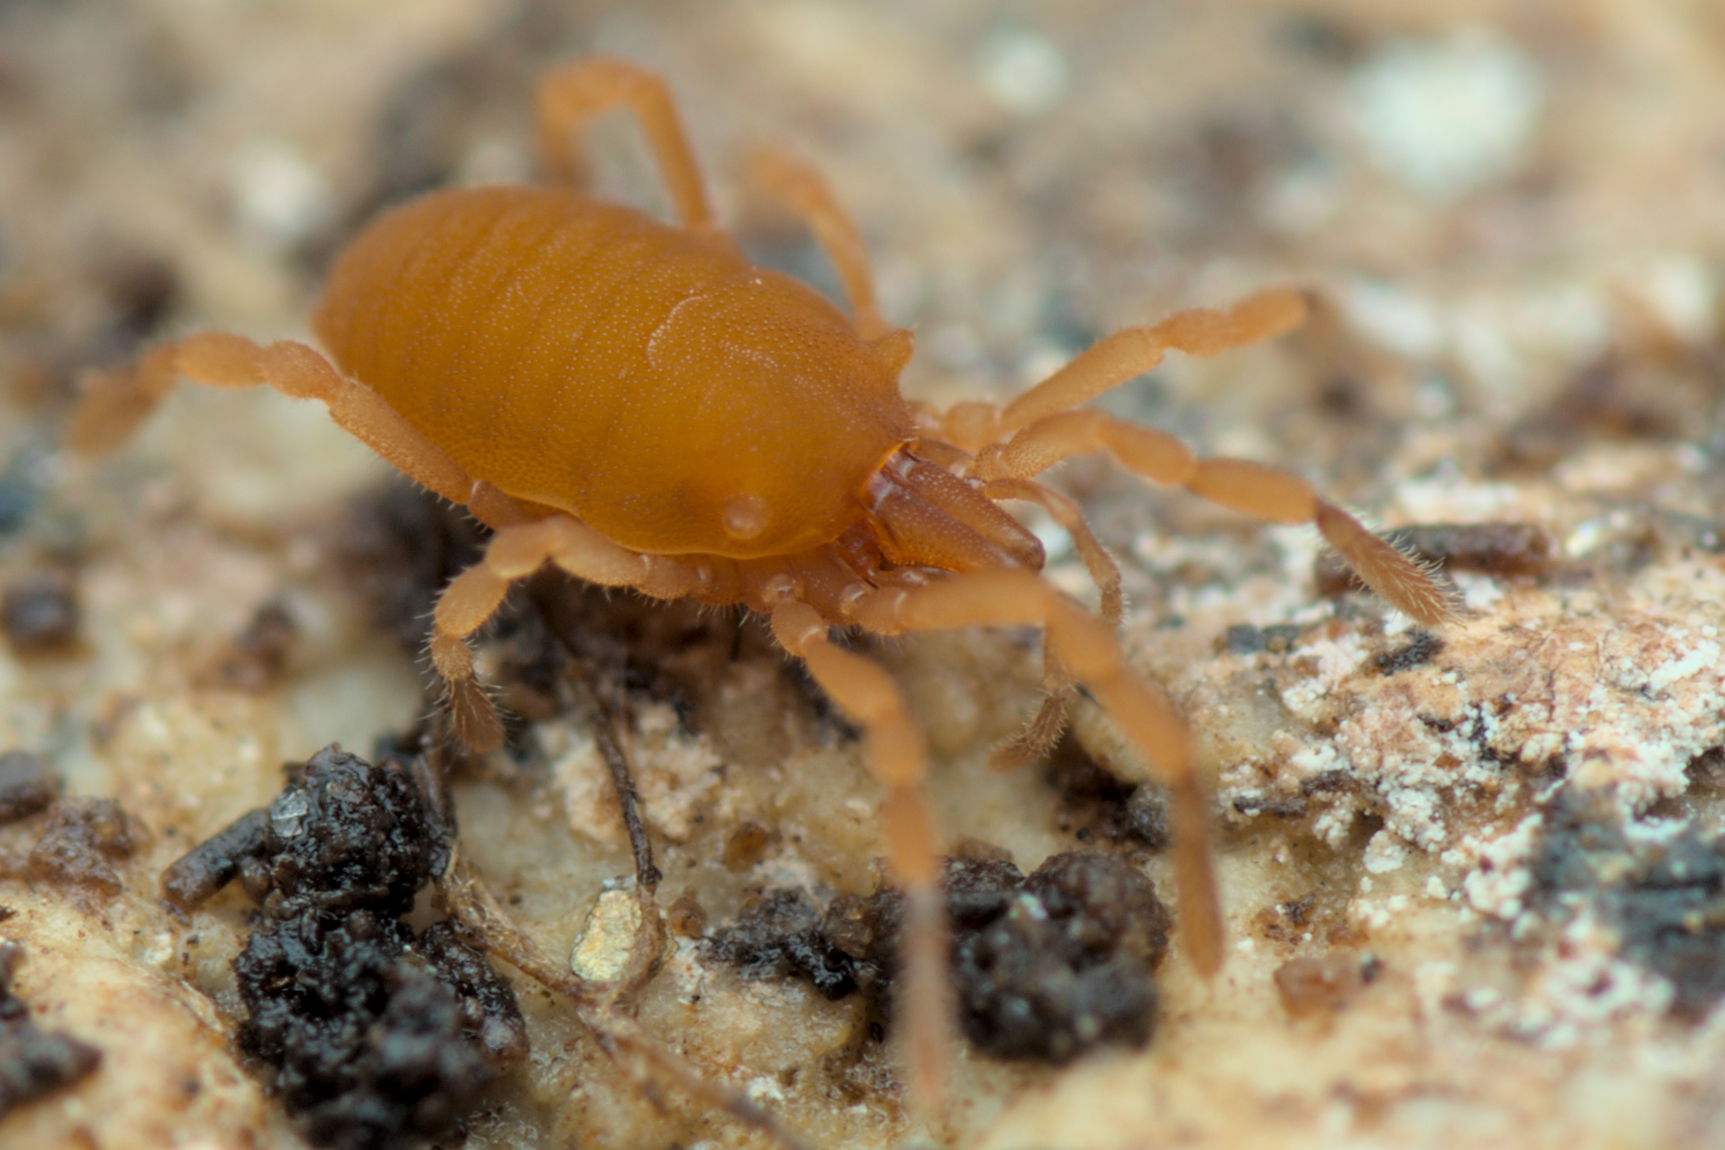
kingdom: Animalia
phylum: Arthropoda
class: Arachnida
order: Opiliones
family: Sironidae
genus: Siro
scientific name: Siro rubens
